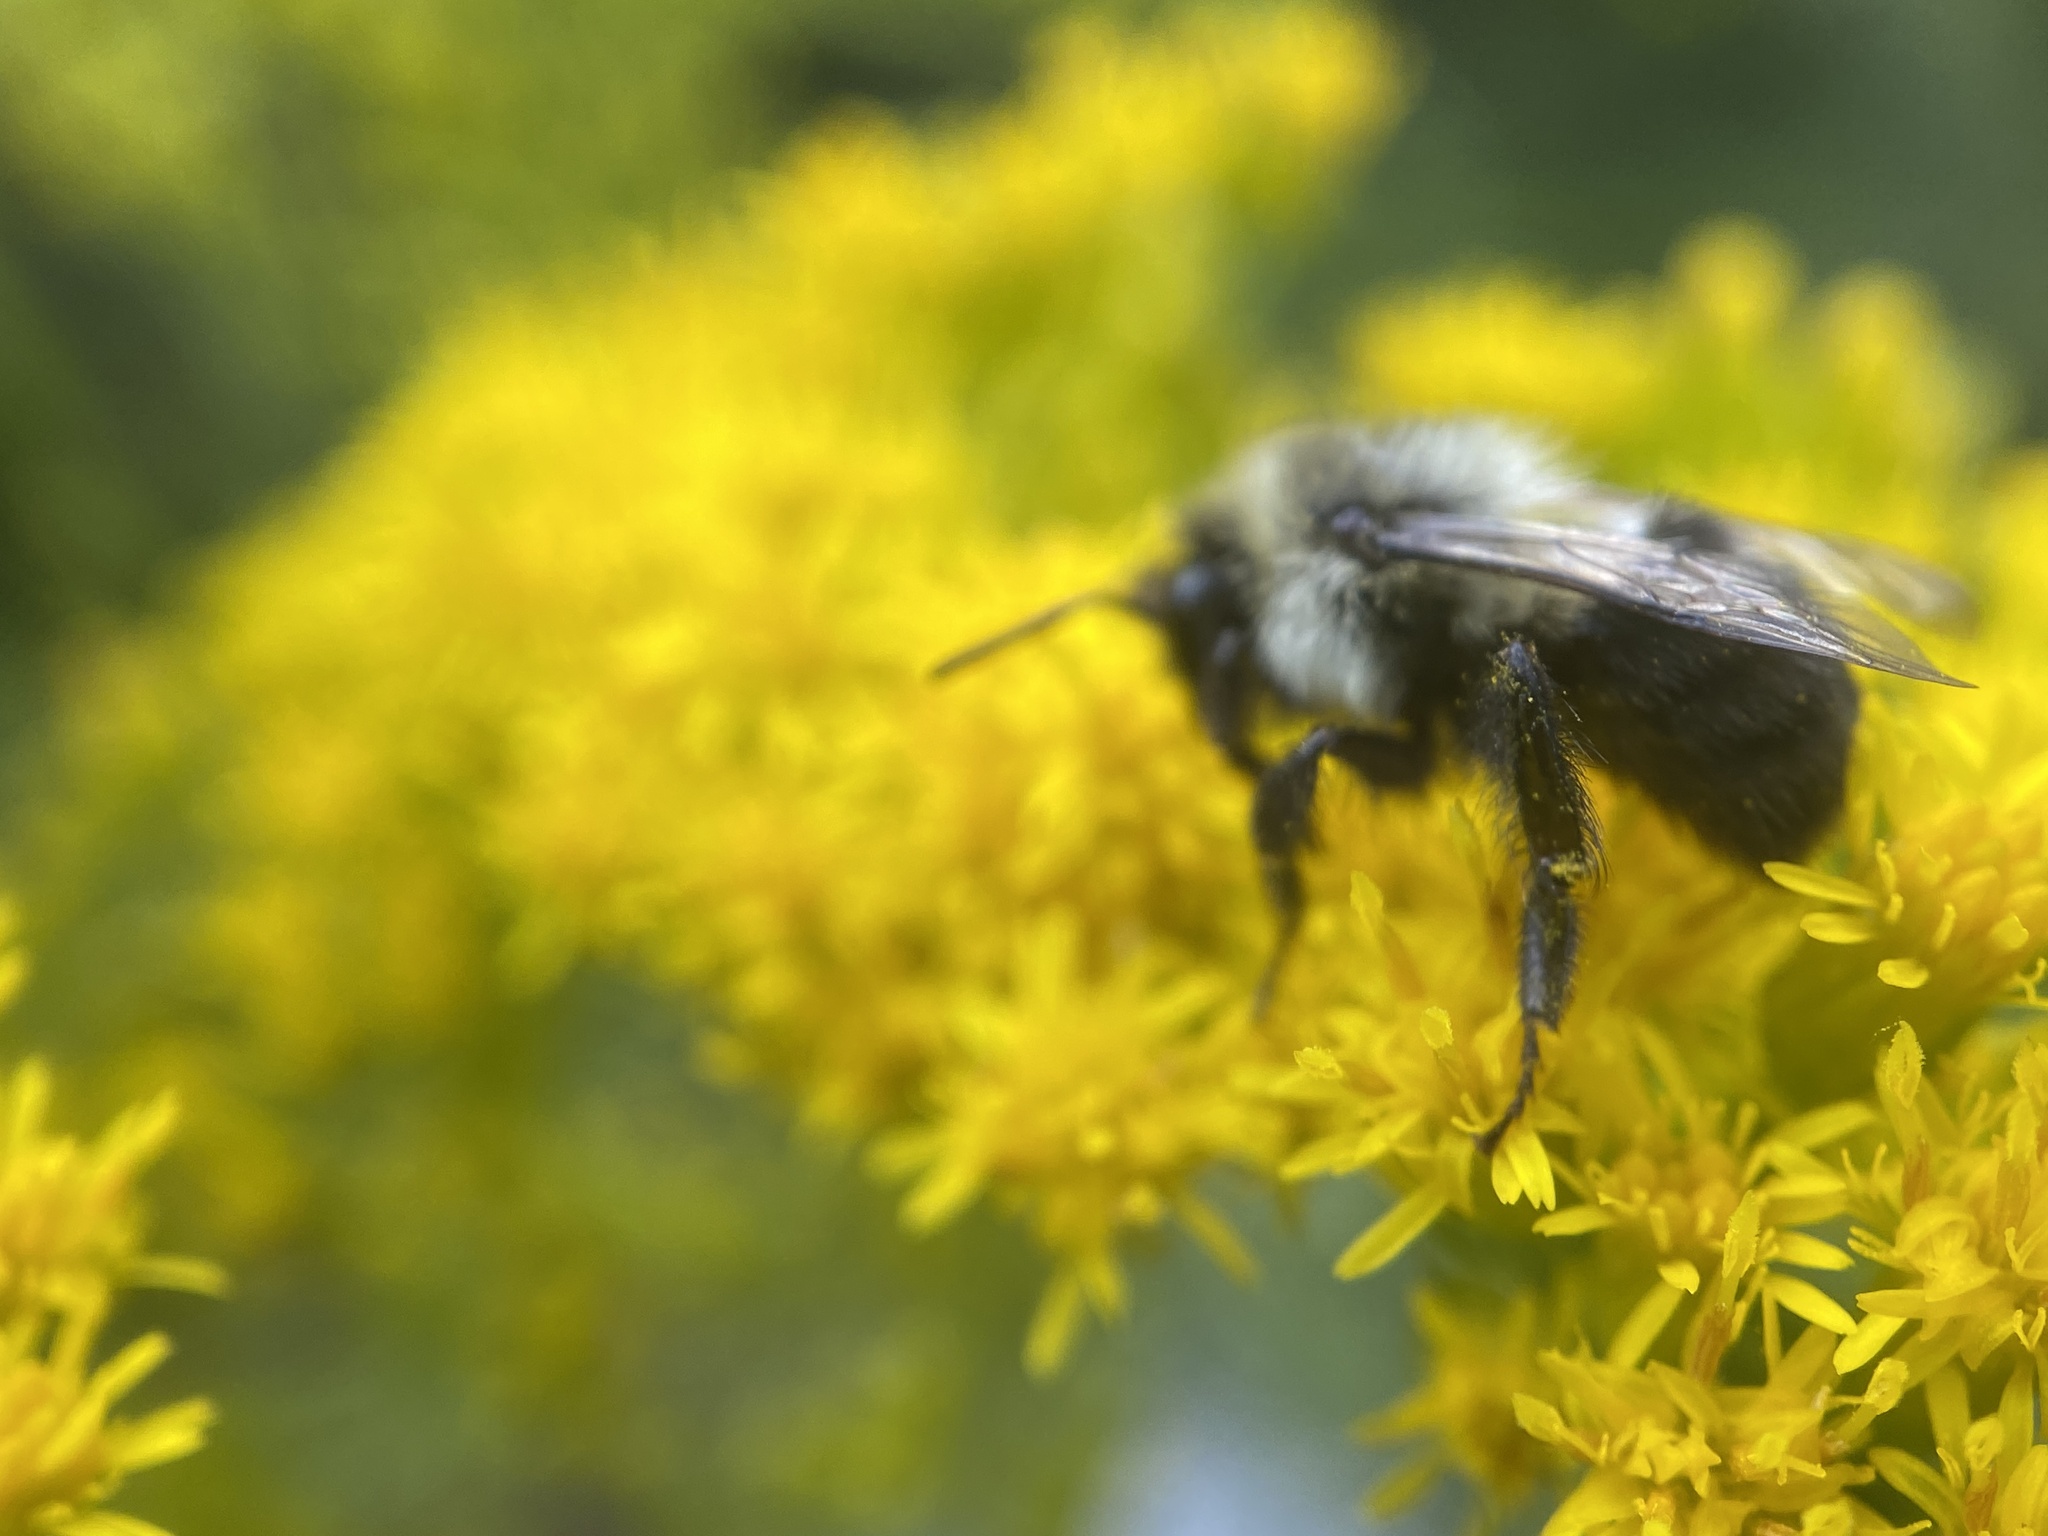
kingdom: Animalia
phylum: Arthropoda
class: Insecta
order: Hymenoptera
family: Apidae
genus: Bombus
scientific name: Bombus impatiens
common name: Common eastern bumble bee
